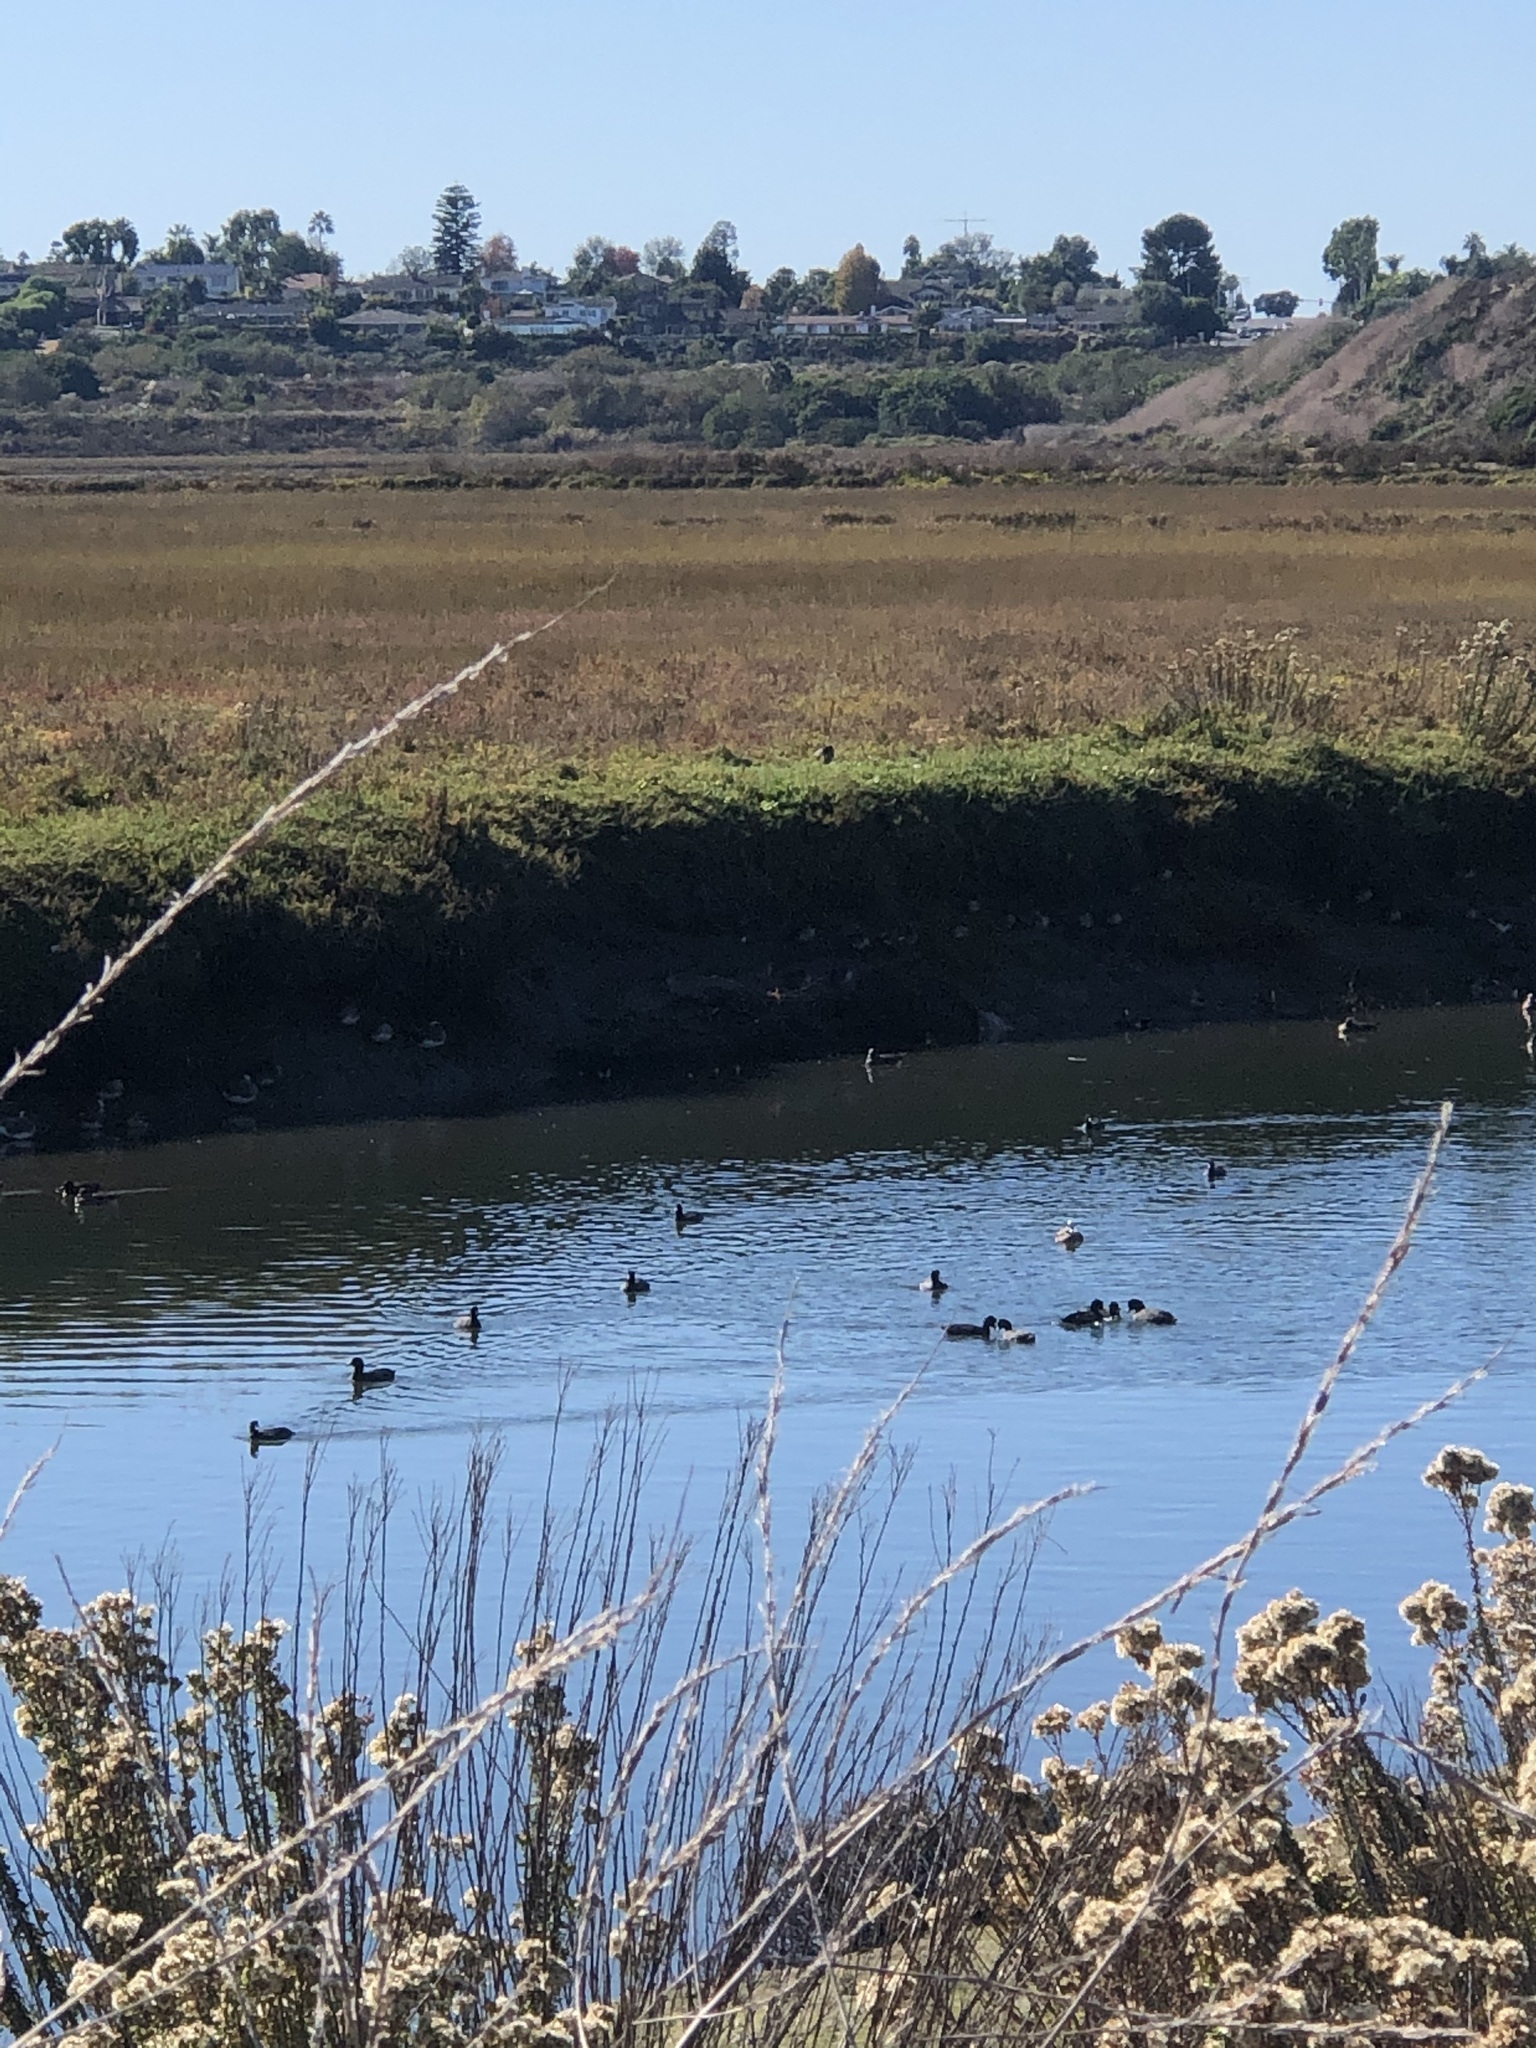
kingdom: Animalia
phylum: Chordata
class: Aves
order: Anseriformes
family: Anatidae
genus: Mareca
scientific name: Mareca americana
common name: American wigeon
